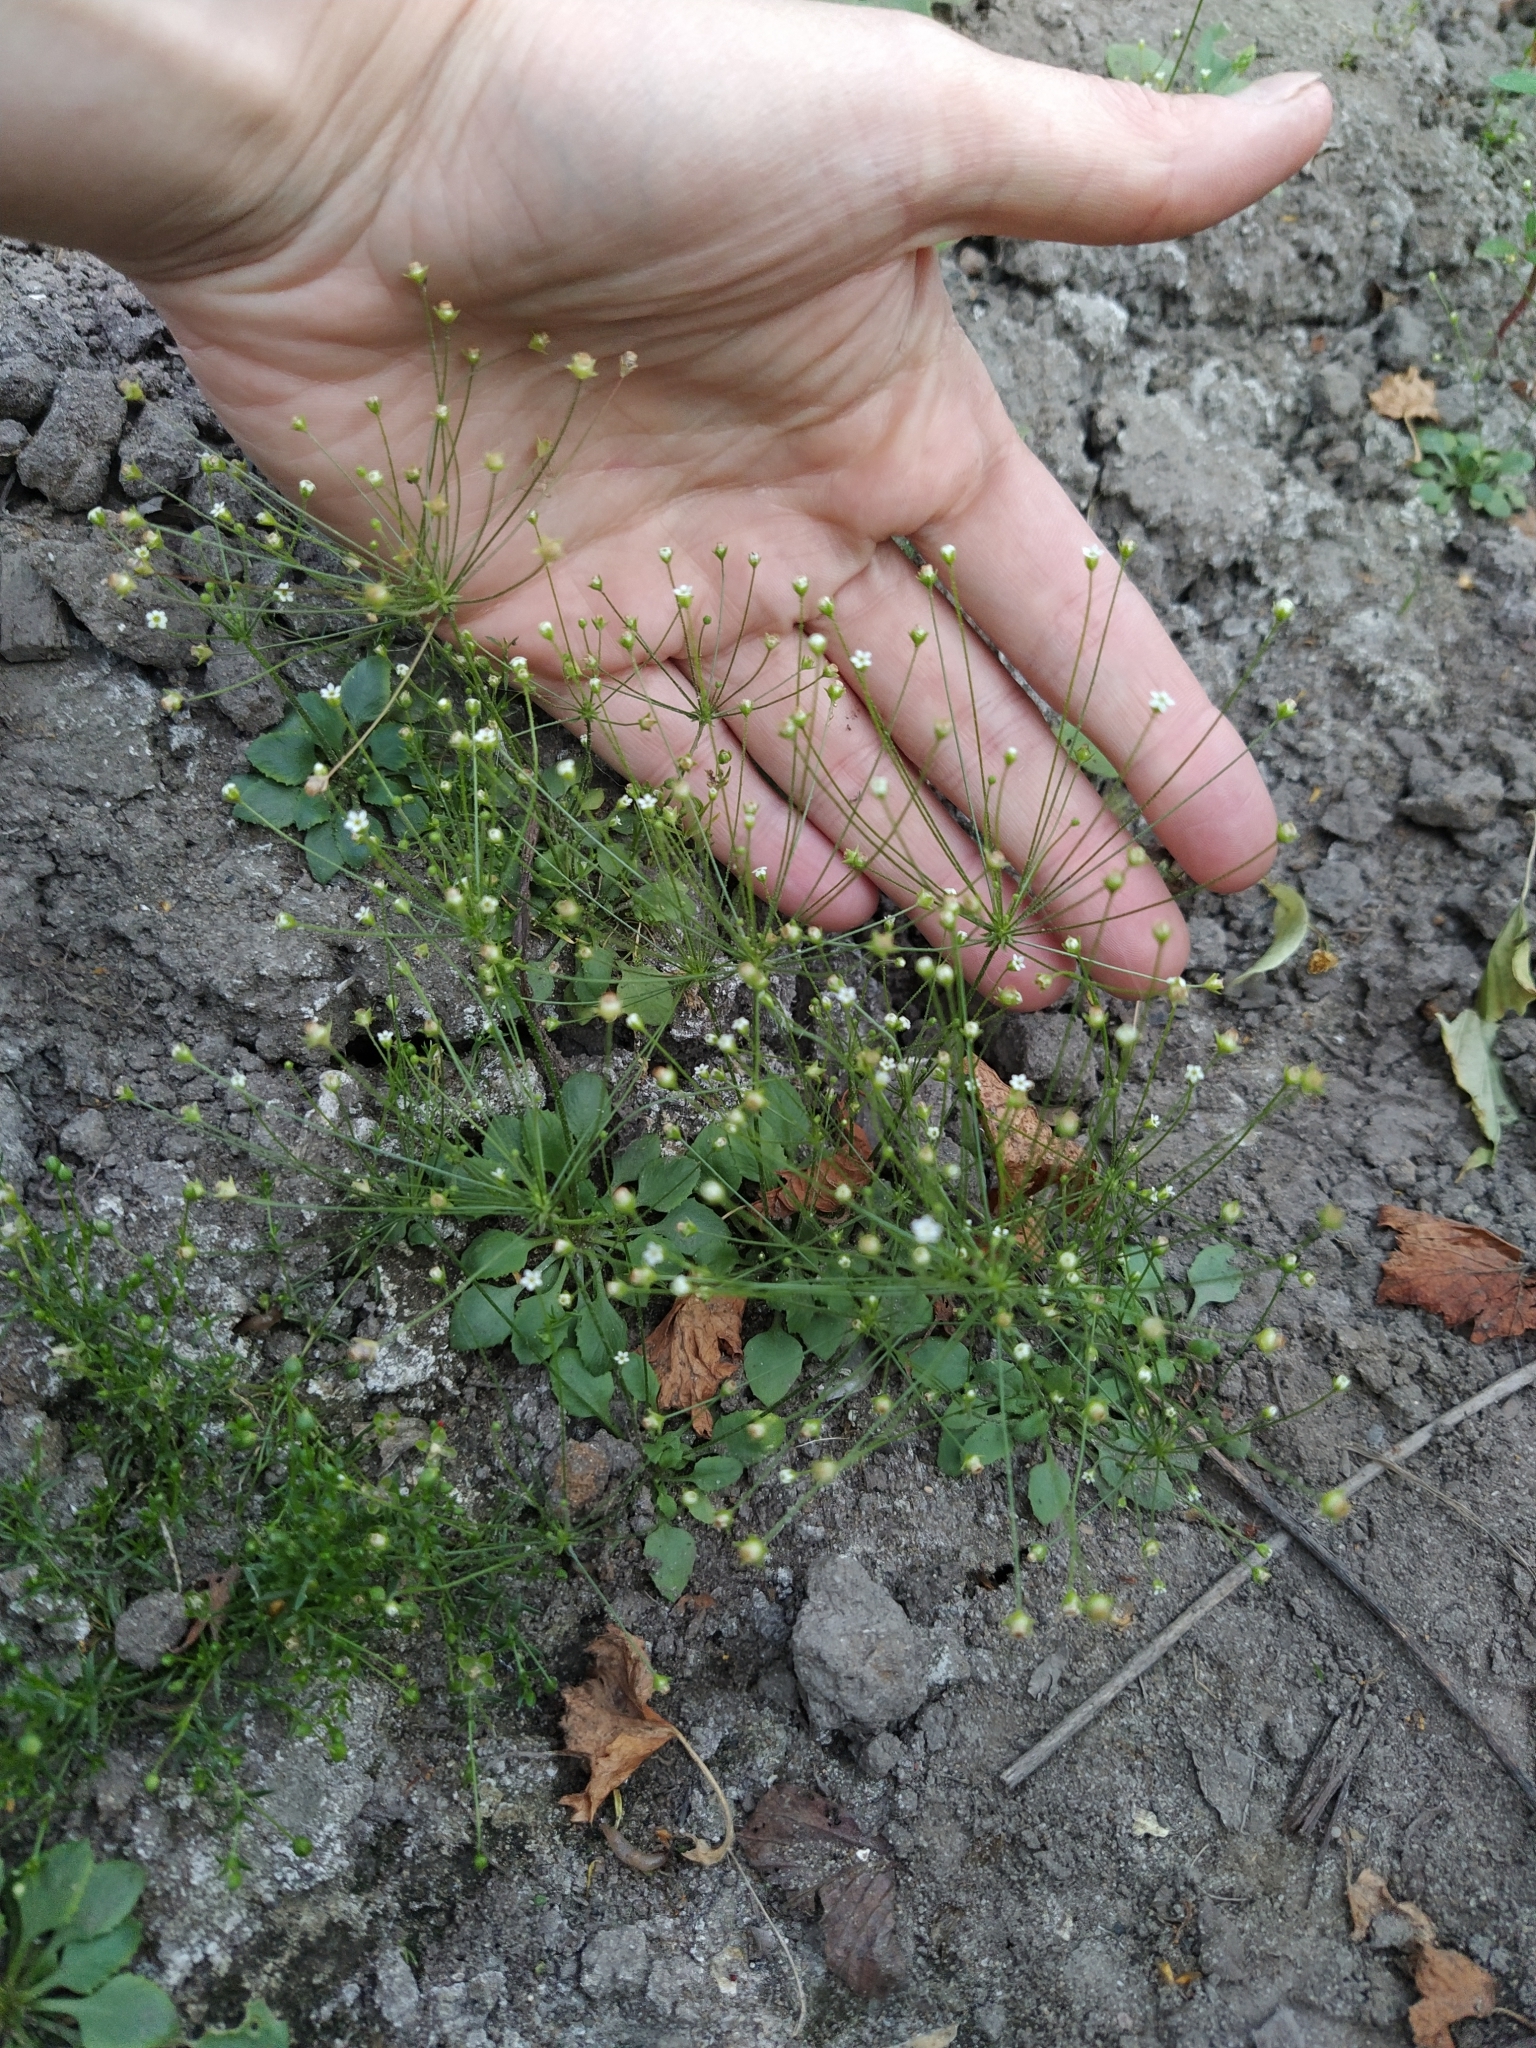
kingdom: Plantae
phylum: Tracheophyta
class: Magnoliopsida
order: Ericales
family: Primulaceae
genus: Androsace
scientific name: Androsace filiformis
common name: Filiform rock jasmine
